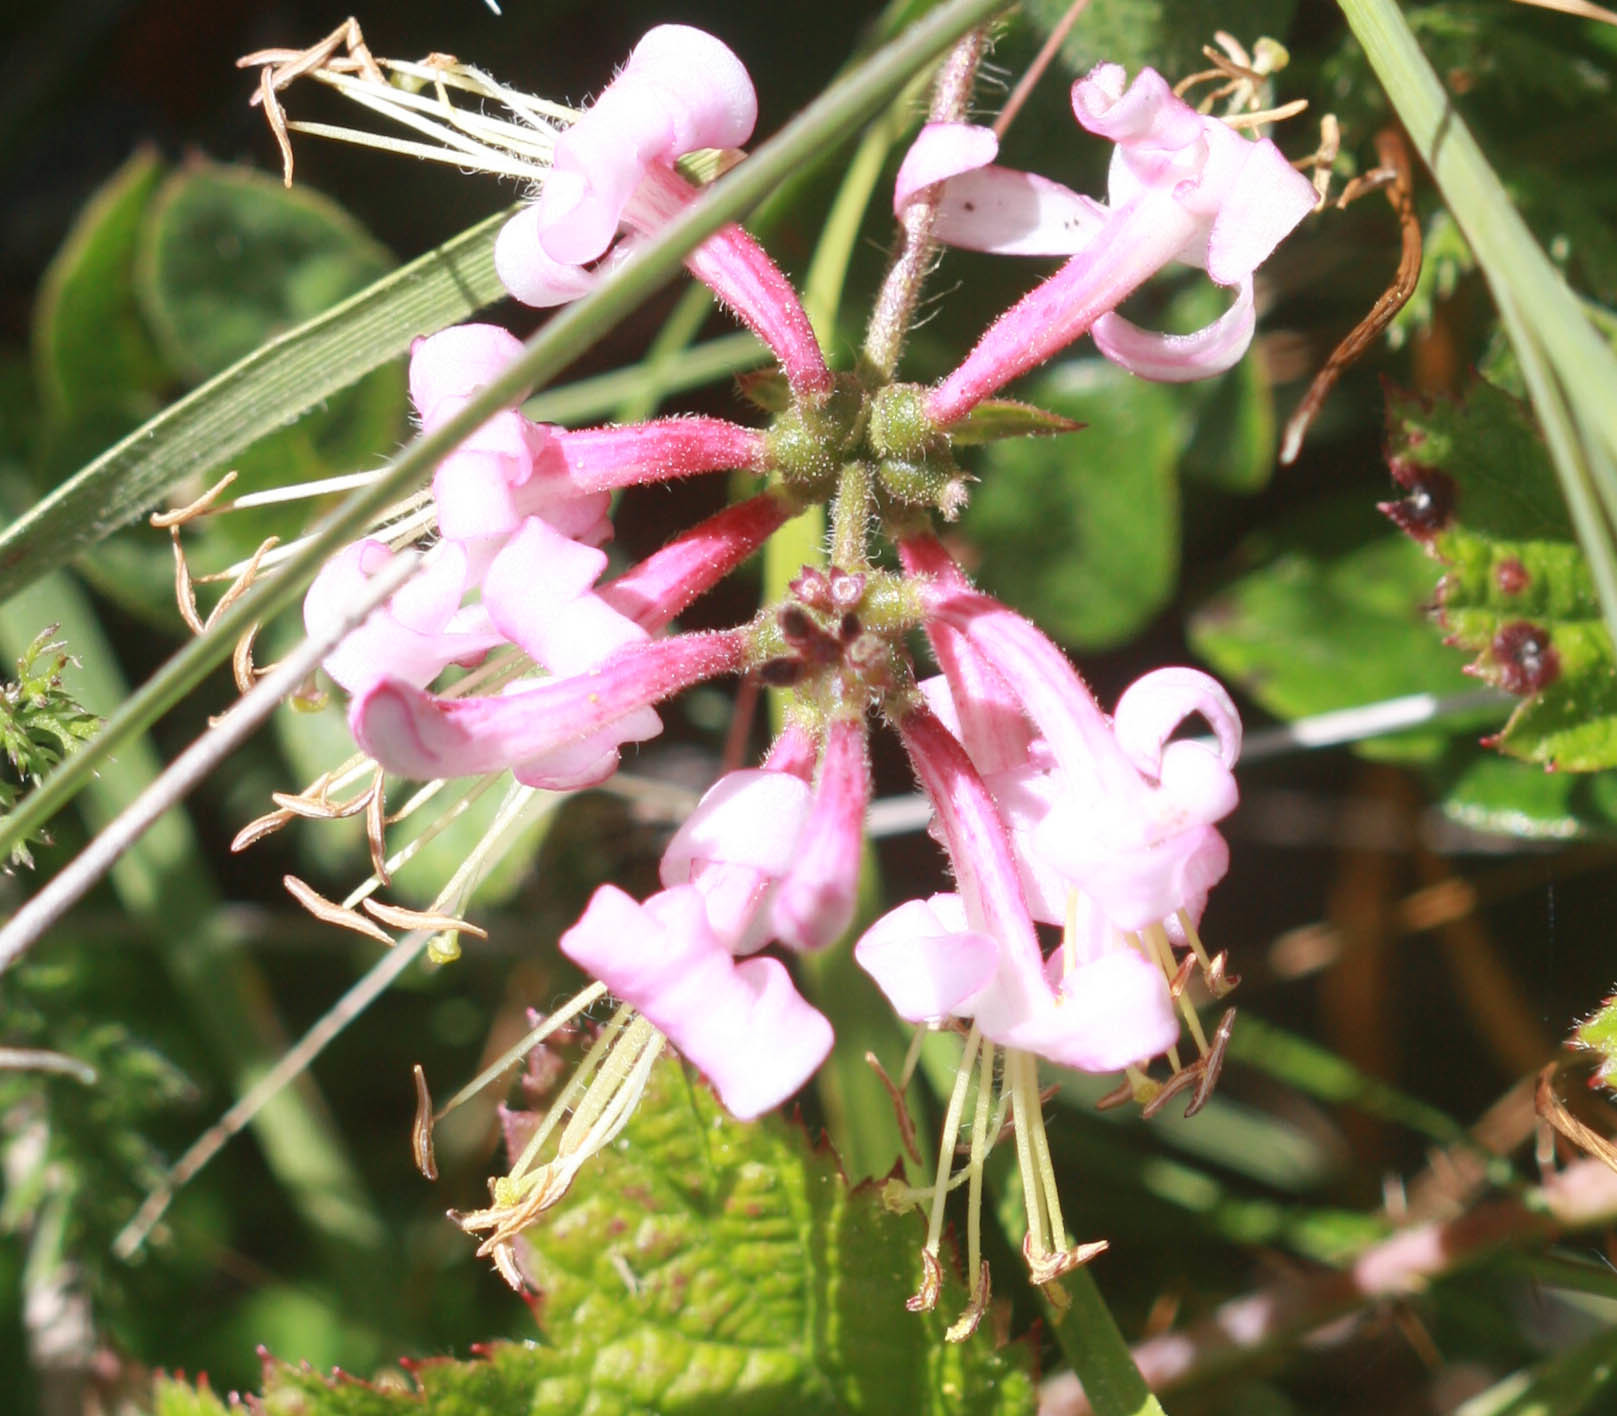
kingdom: Plantae
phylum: Tracheophyta
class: Magnoliopsida
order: Dipsacales
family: Caprifoliaceae
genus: Lonicera
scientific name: Lonicera hispidula
